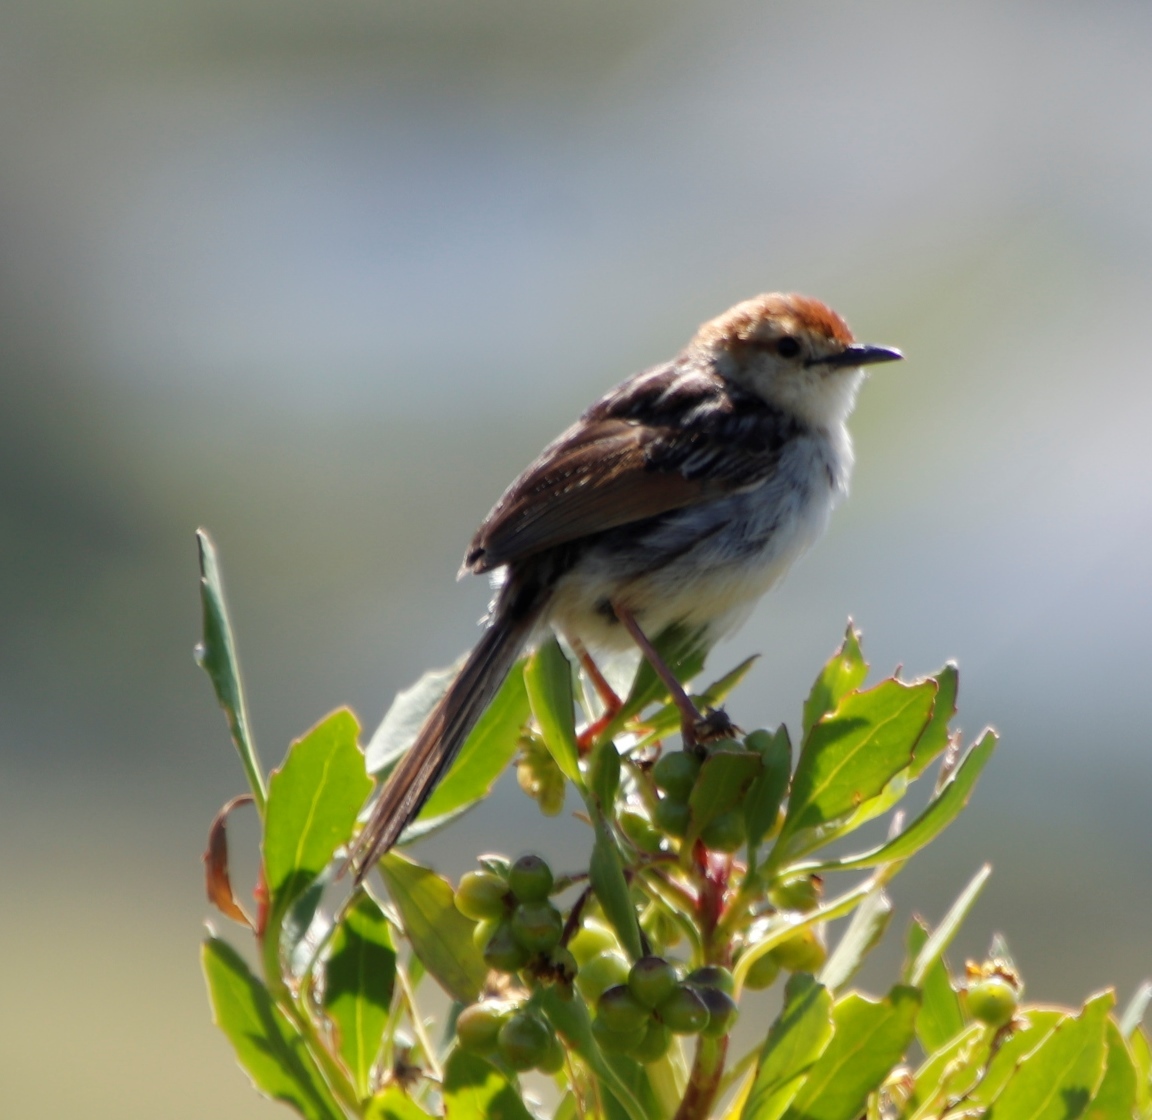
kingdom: Animalia
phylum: Chordata
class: Aves
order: Passeriformes
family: Cisticolidae
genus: Cisticola
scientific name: Cisticola tinniens
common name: Levaillant's cisticola
